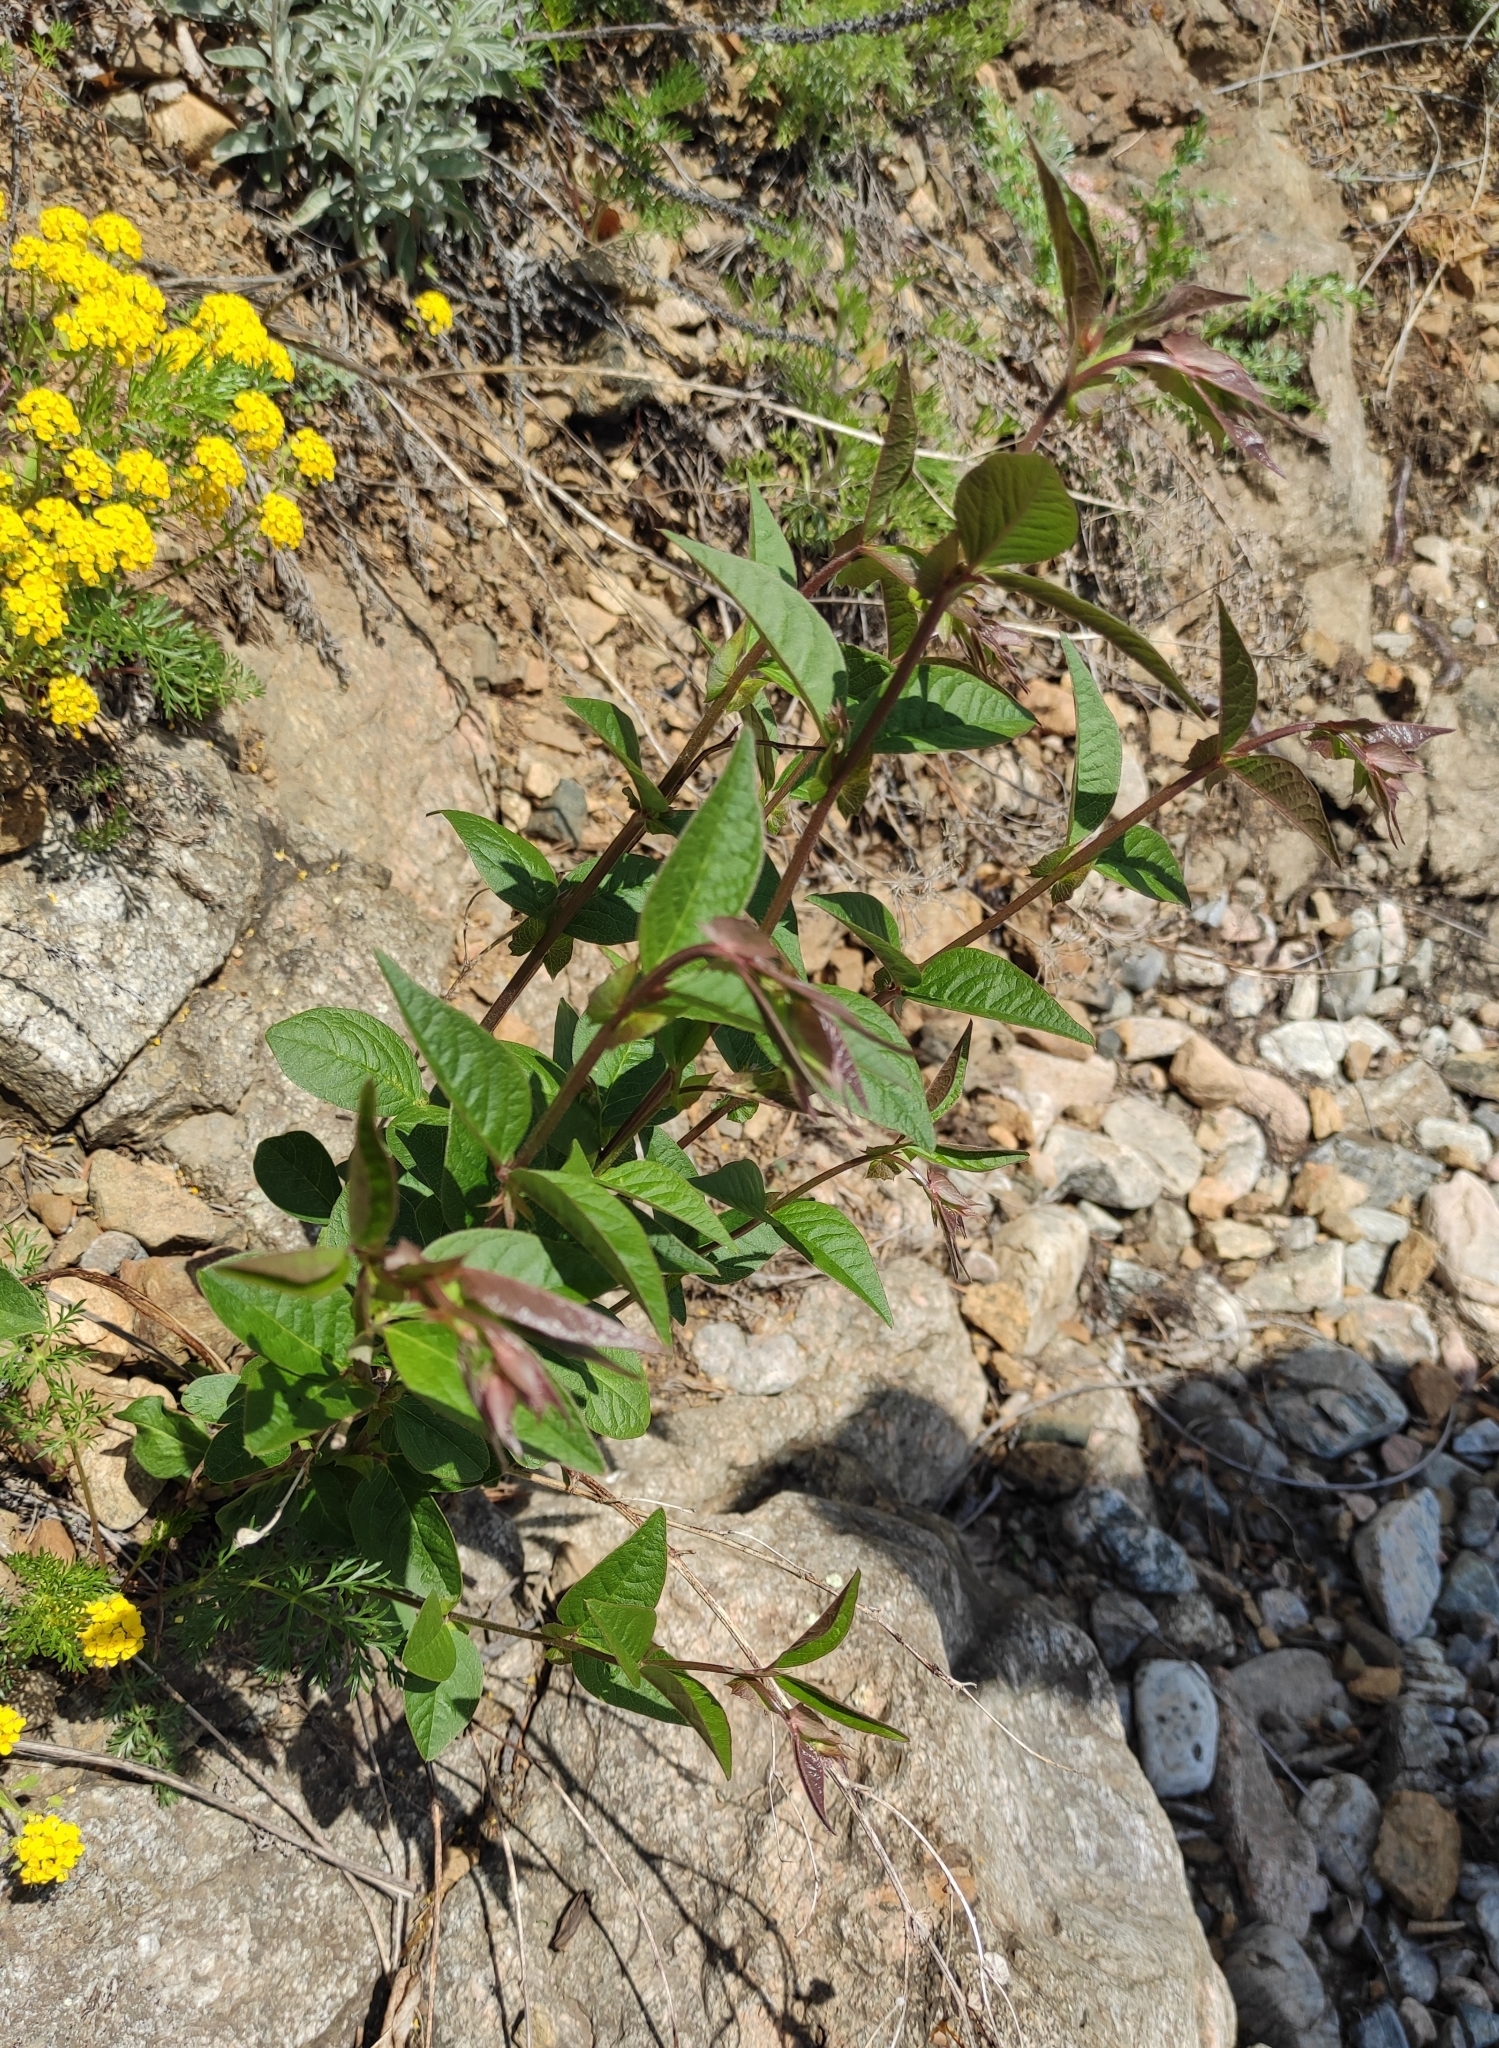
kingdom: Plantae
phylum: Tracheophyta
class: Magnoliopsida
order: Fabales
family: Fabaceae
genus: Vicia
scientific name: Vicia unijuga
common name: Two-leaf vetch
